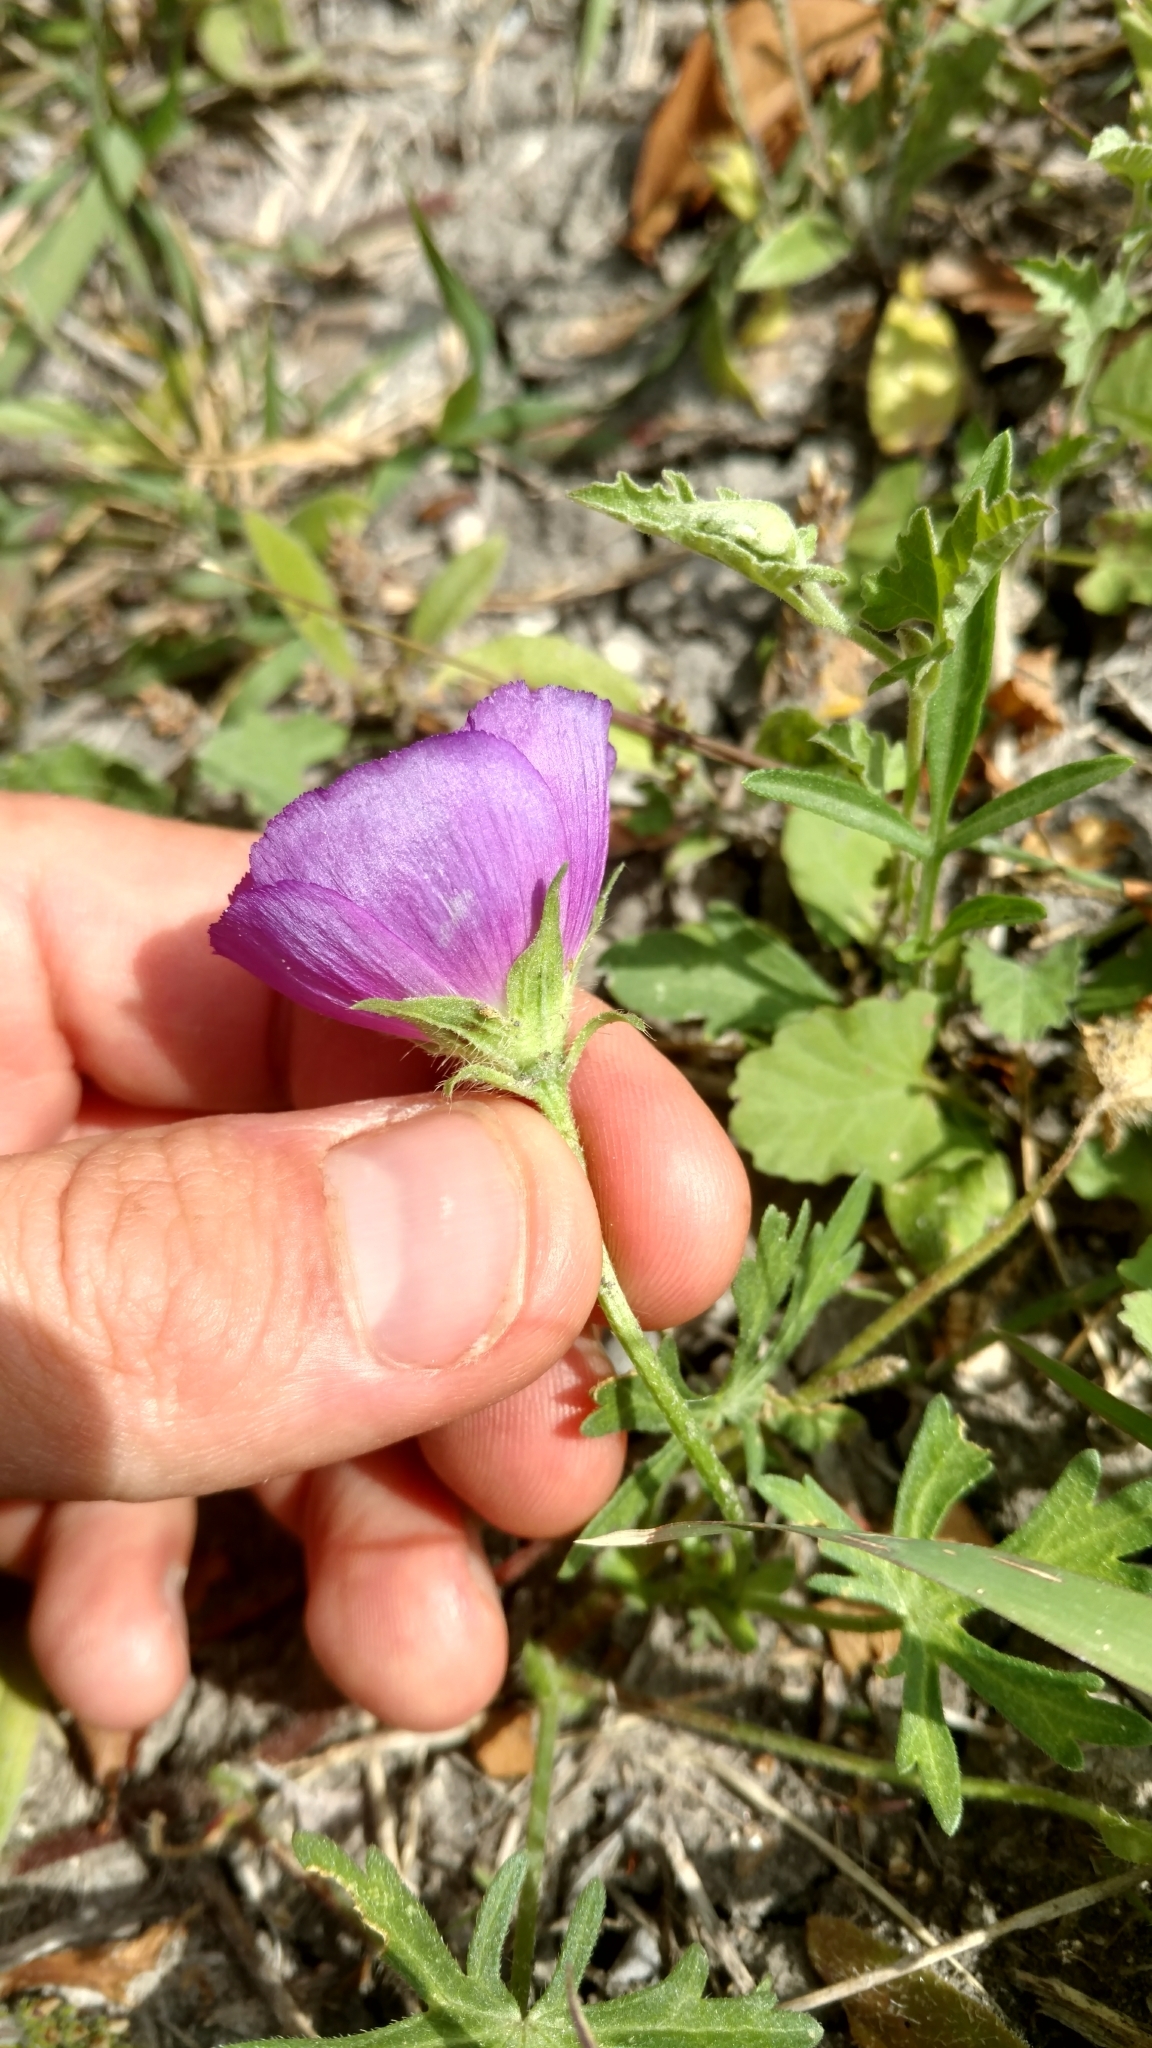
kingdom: Plantae
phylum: Tracheophyta
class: Magnoliopsida
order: Malvales
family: Malvaceae
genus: Callirhoe
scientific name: Callirhoe involucrata
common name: Purple poppy-mallow
